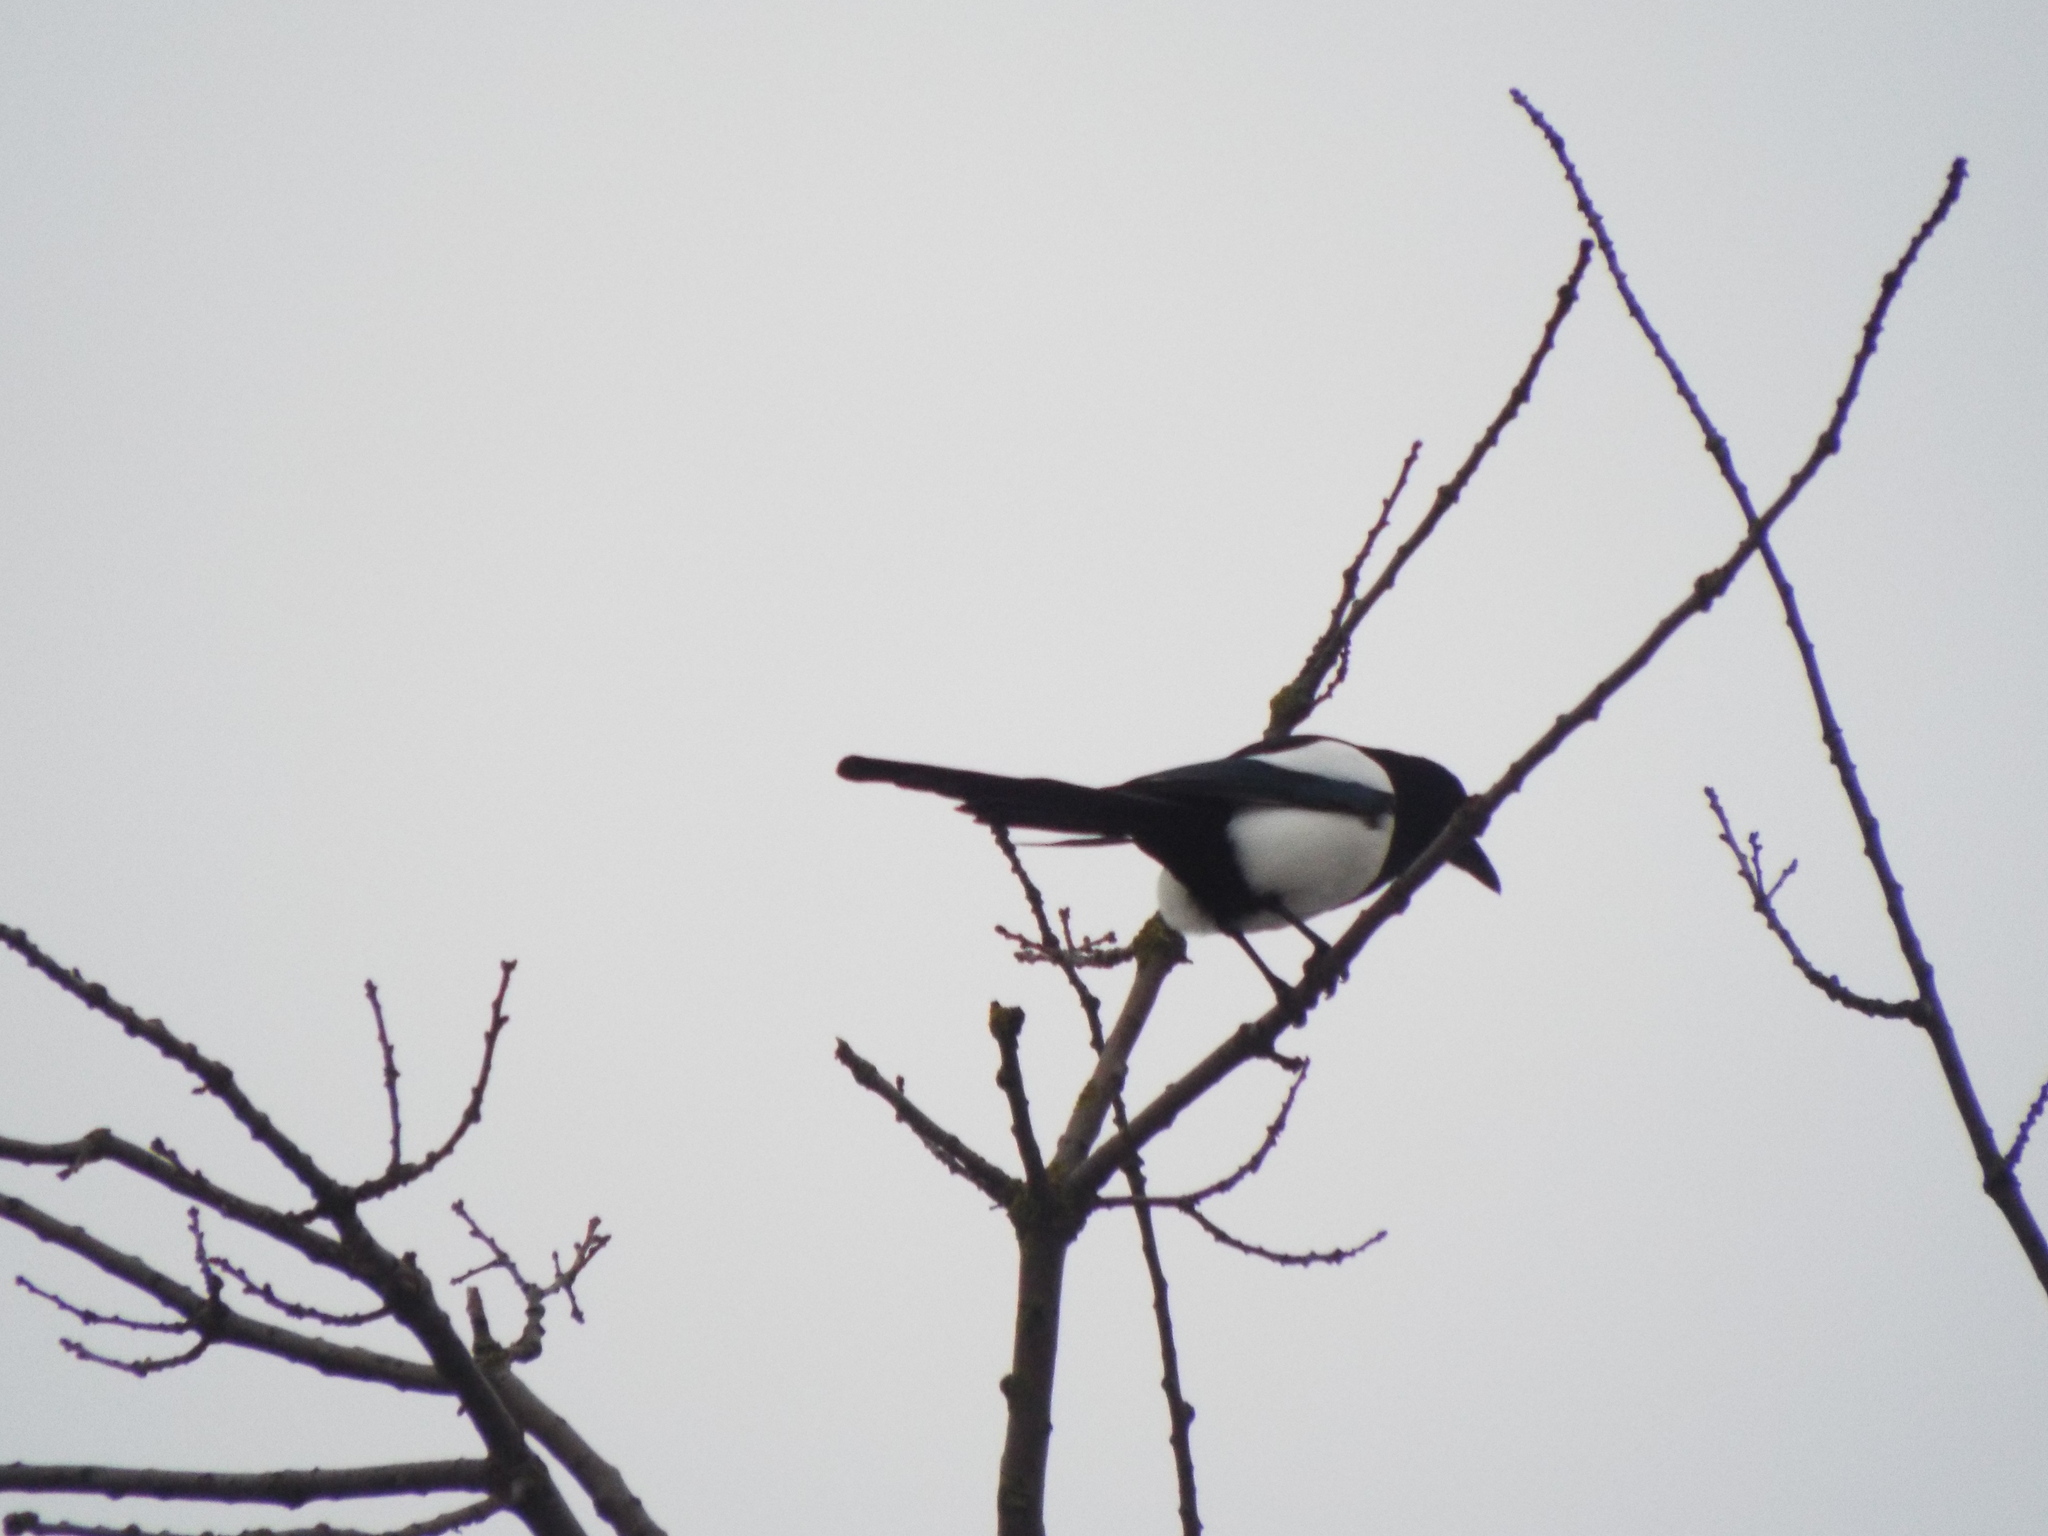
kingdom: Animalia
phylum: Chordata
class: Aves
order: Passeriformes
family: Corvidae
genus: Pica
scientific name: Pica pica
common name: Eurasian magpie
